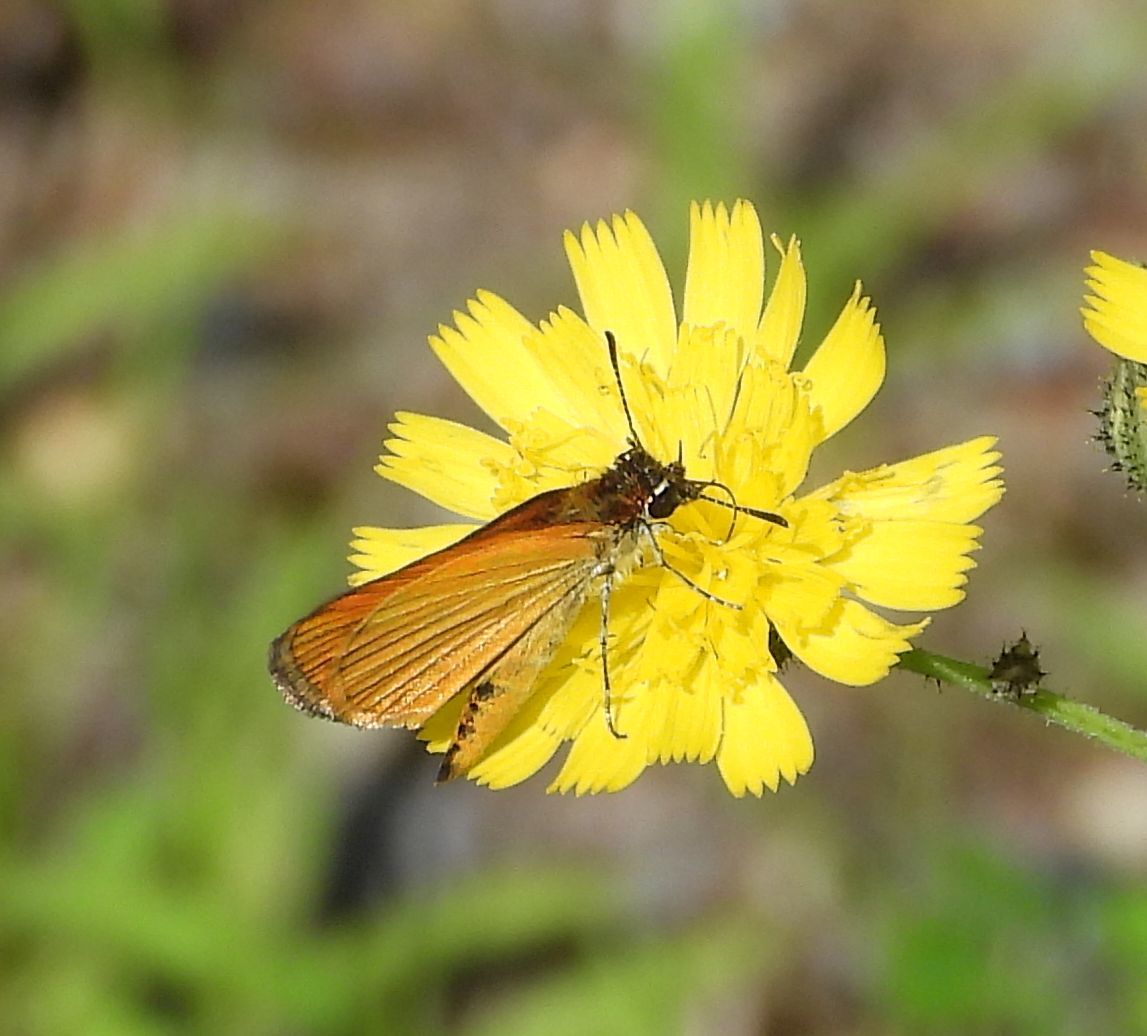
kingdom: Animalia
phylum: Arthropoda
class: Insecta
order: Lepidoptera
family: Hesperiidae
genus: Ancyloxypha
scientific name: Ancyloxypha numitor
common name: Least skipper
